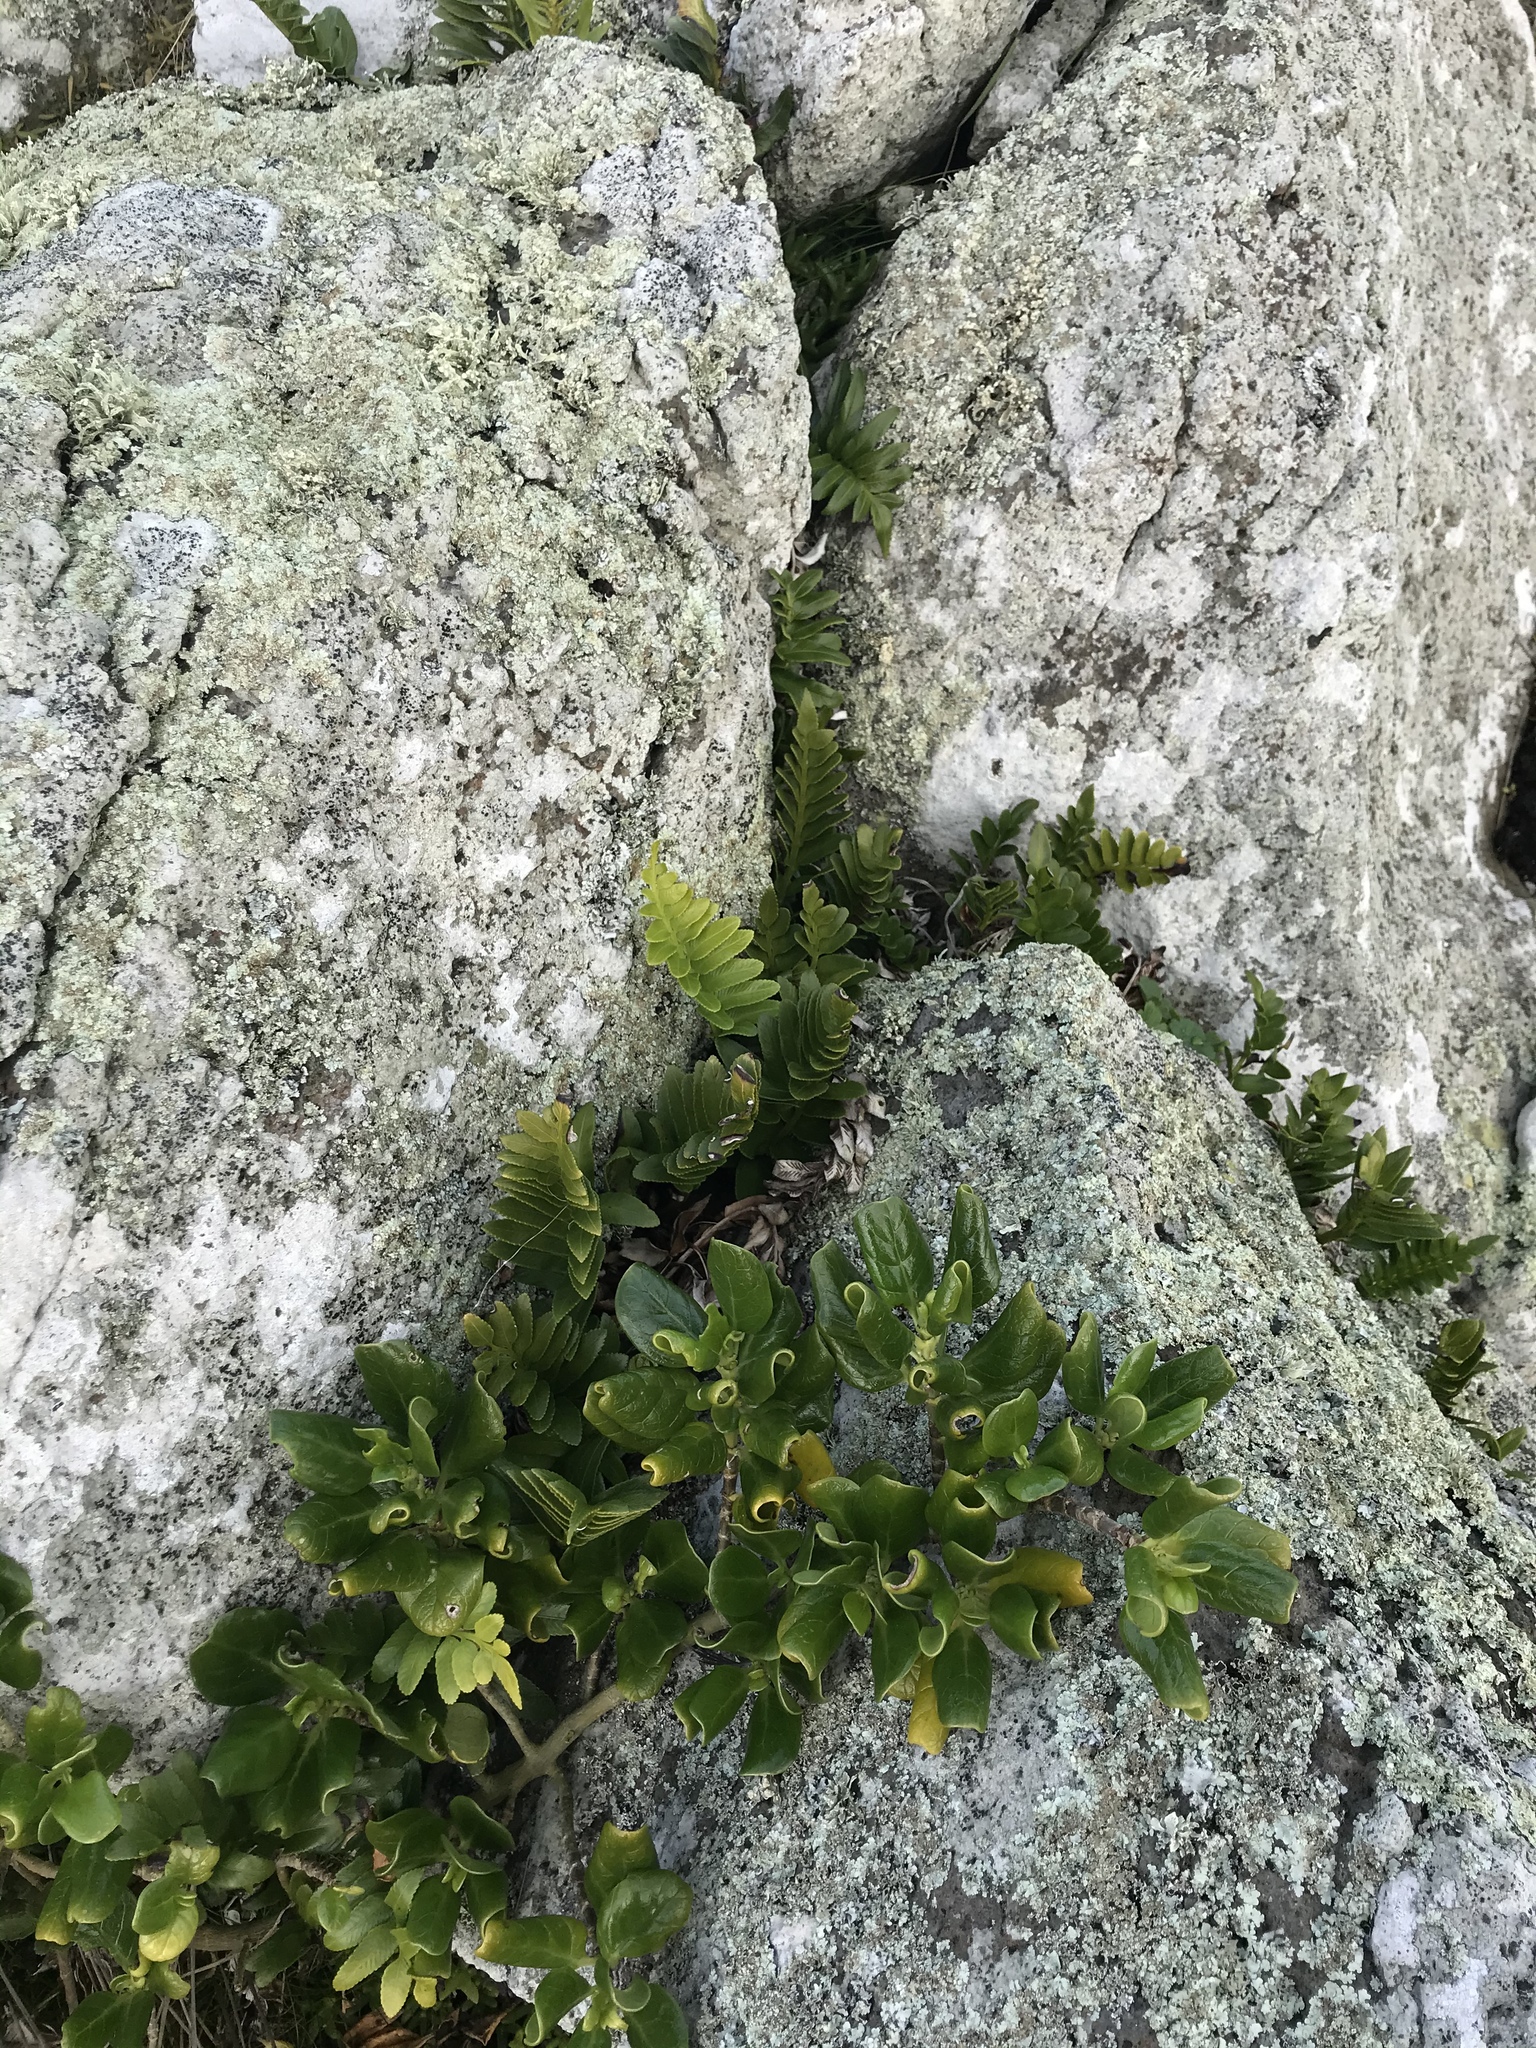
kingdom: Plantae
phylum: Tracheophyta
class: Polypodiopsida
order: Polypodiales
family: Aspleniaceae
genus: Asplenium
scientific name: Asplenium obtusatum
